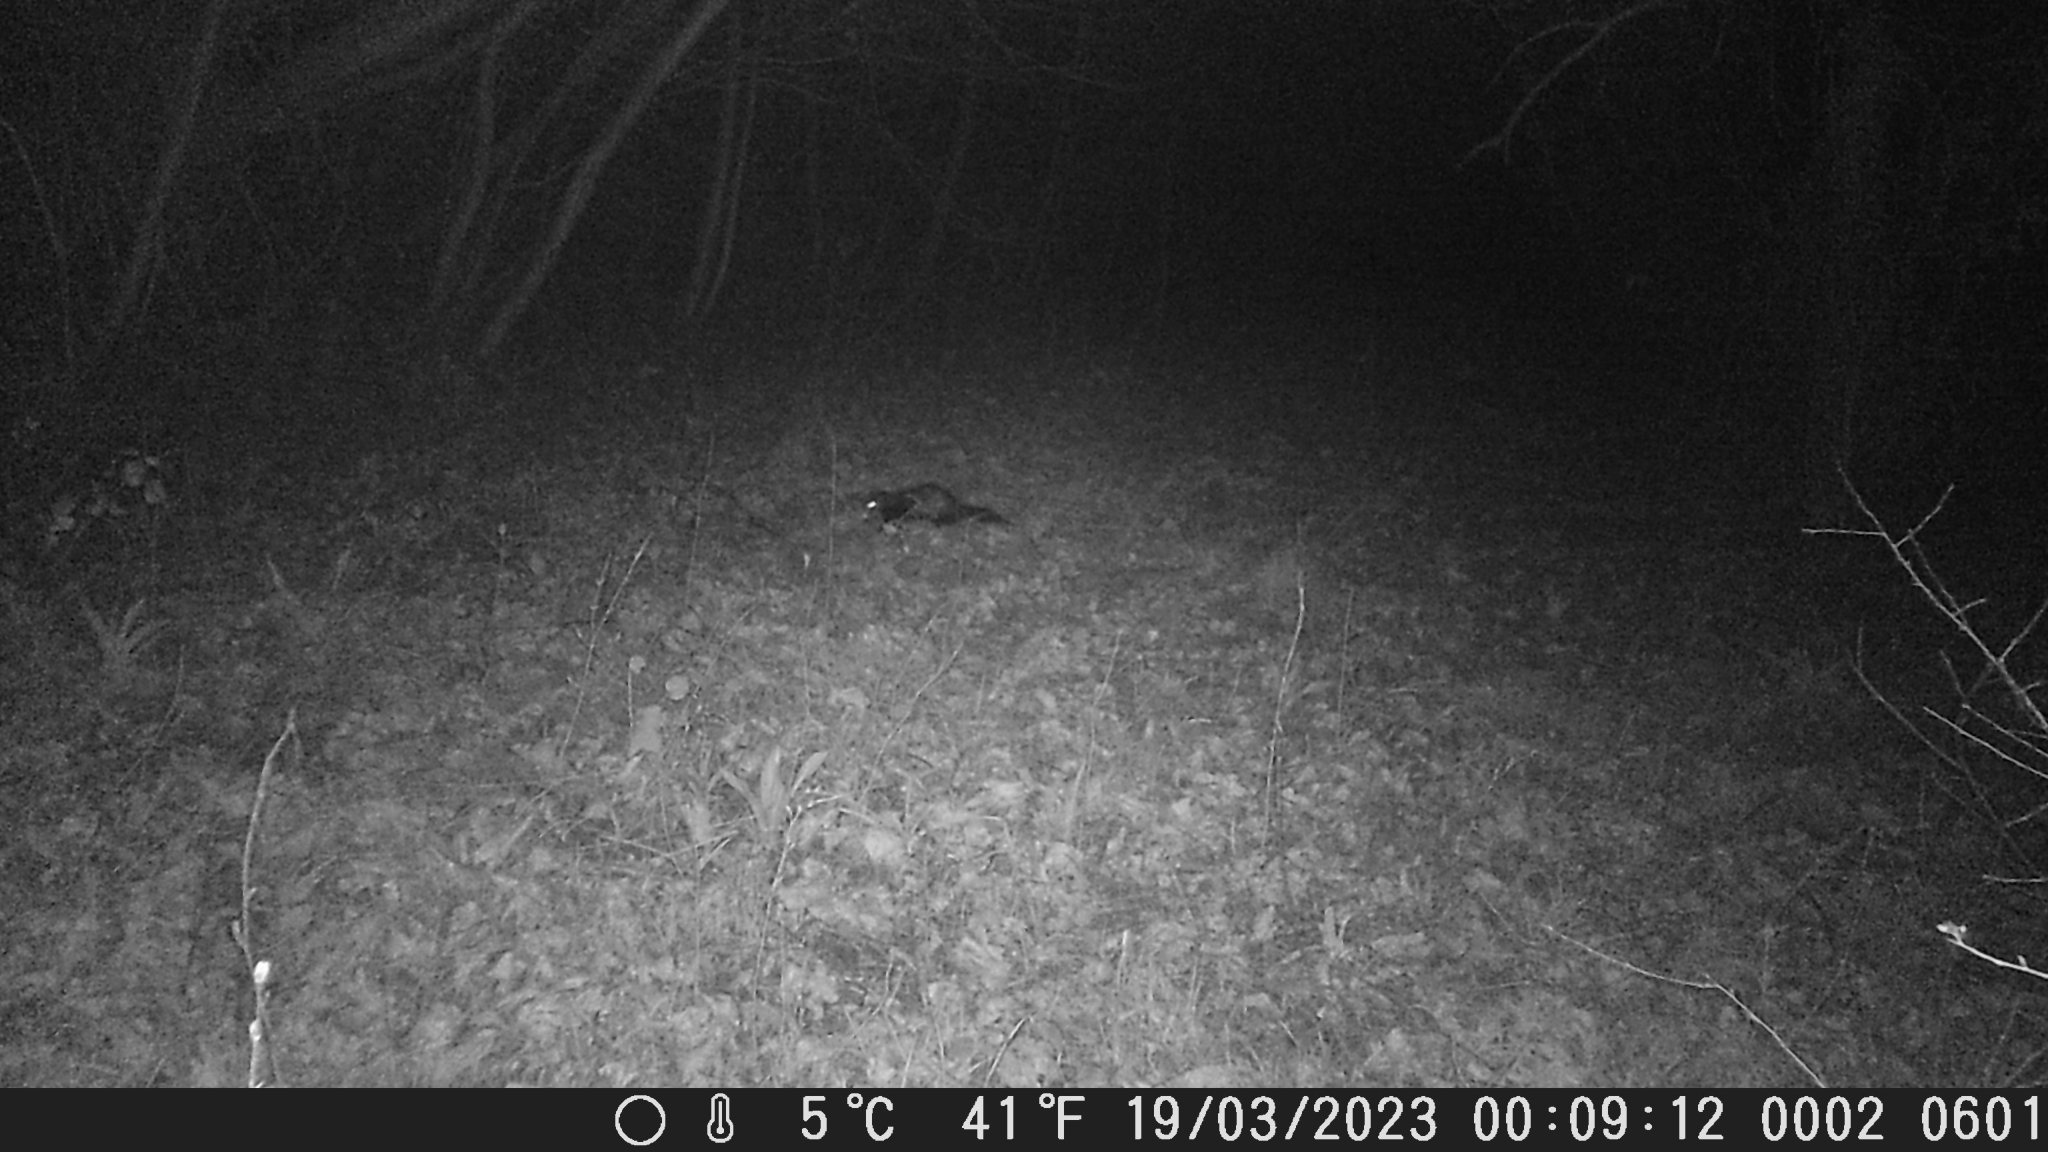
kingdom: Animalia
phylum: Chordata
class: Mammalia
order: Carnivora
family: Mustelidae
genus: Mustela
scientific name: Mustela putorius
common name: European polecat
